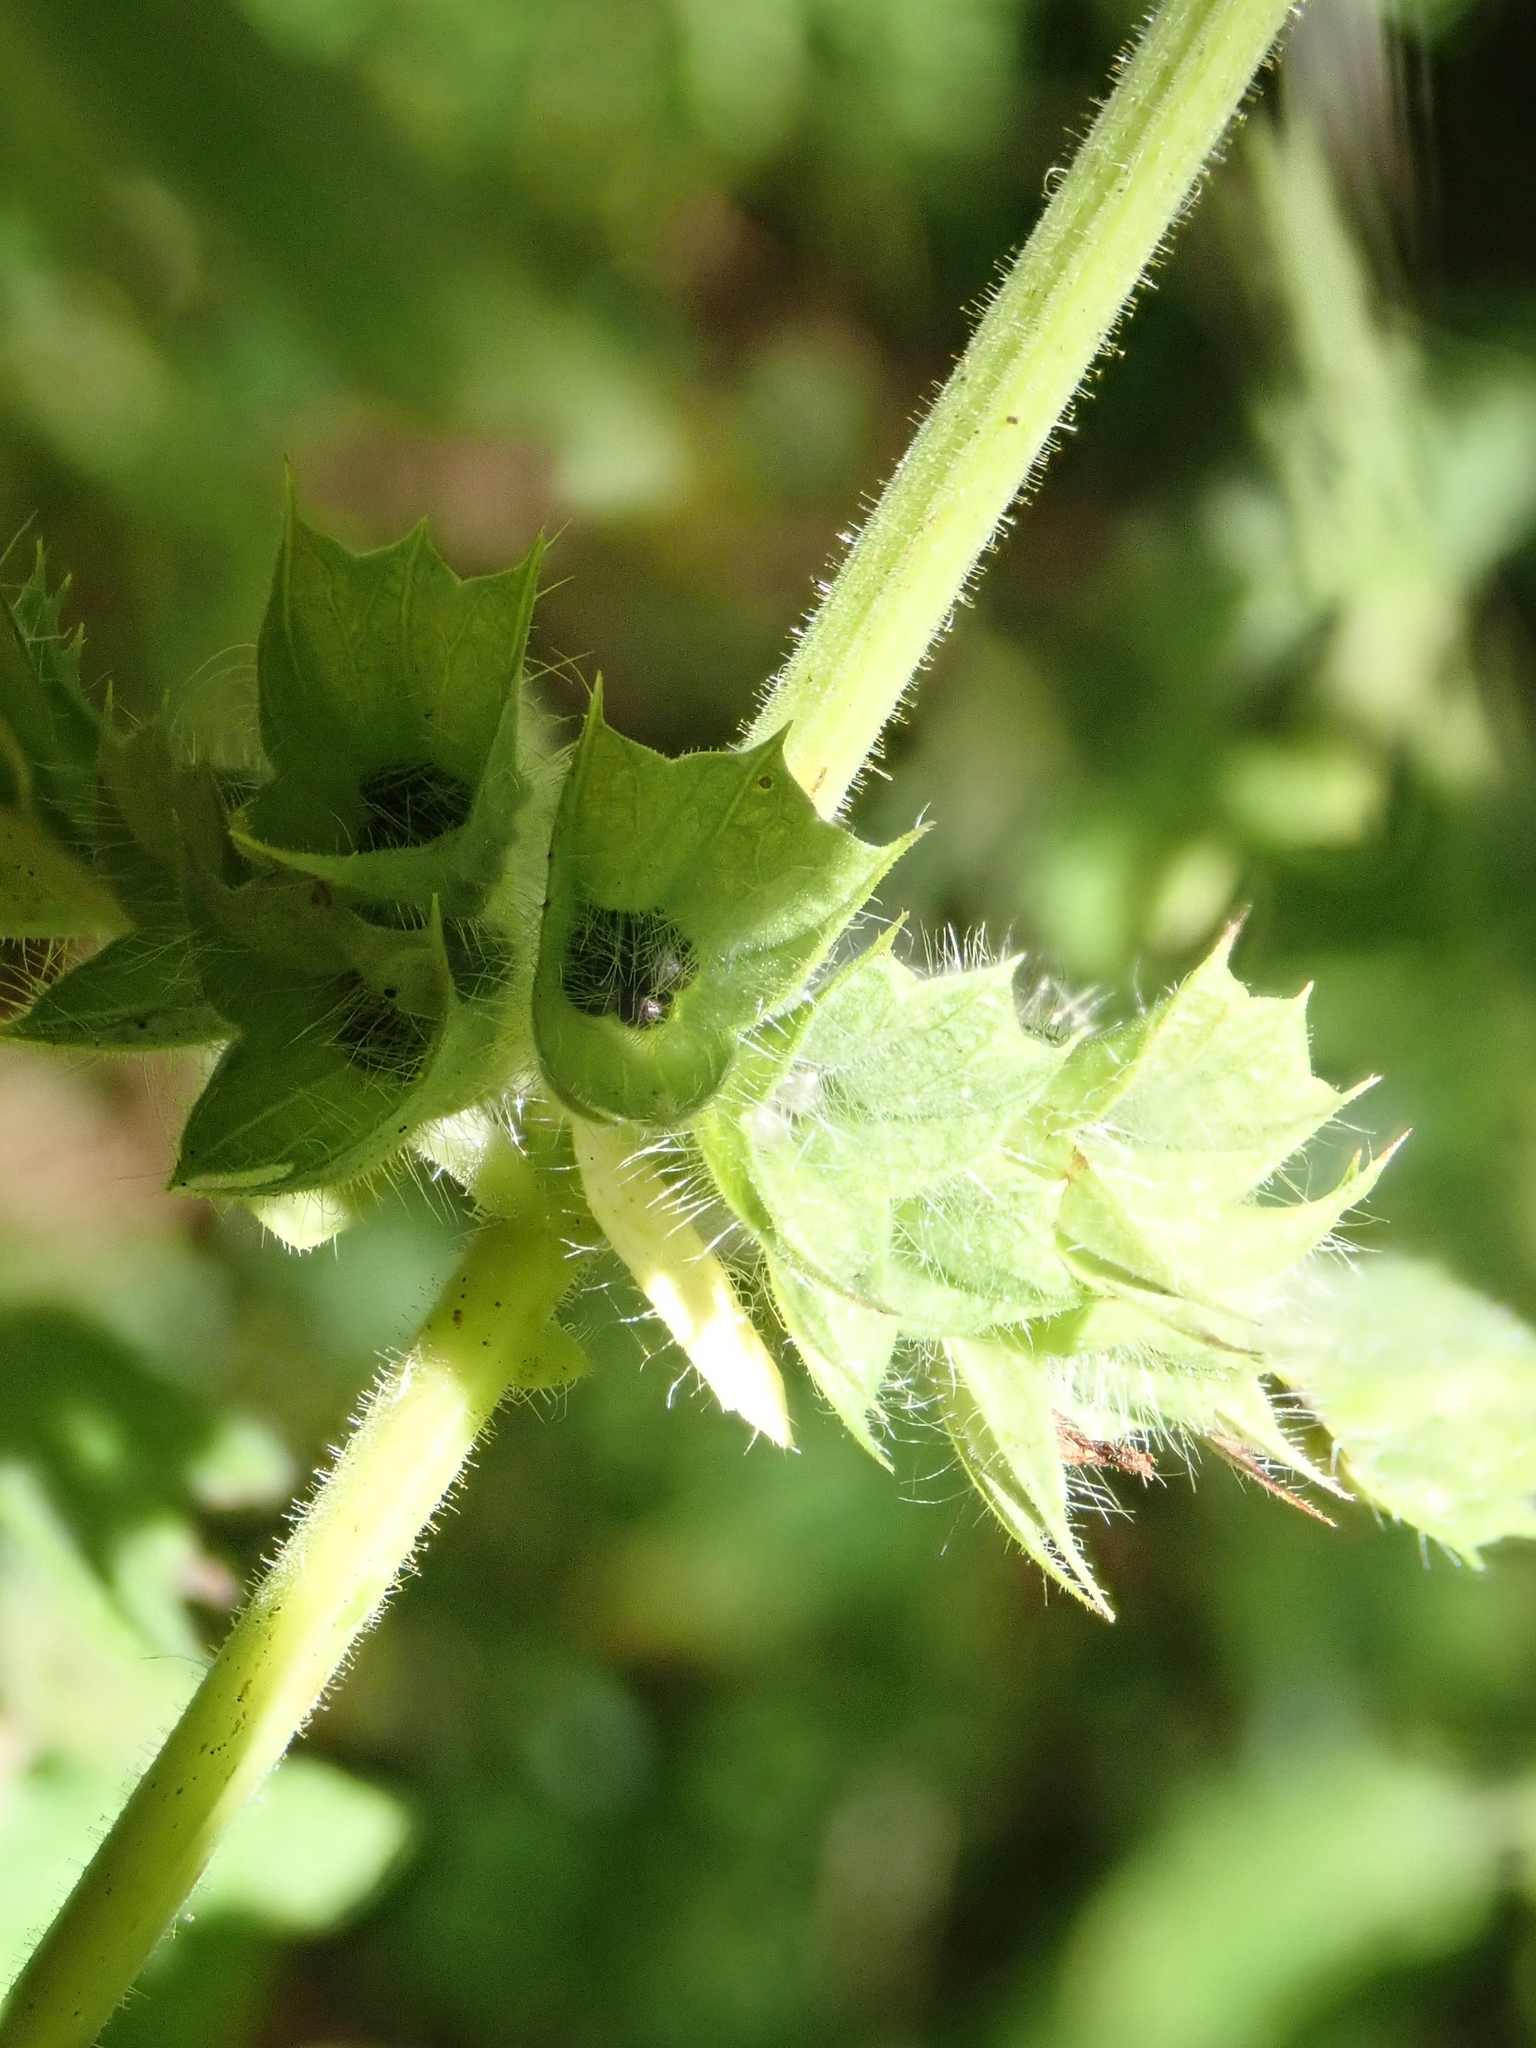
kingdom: Plantae
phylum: Tracheophyta
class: Magnoliopsida
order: Lamiales
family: Lamiaceae
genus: Melissa
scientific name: Melissa officinalis
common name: Balm
